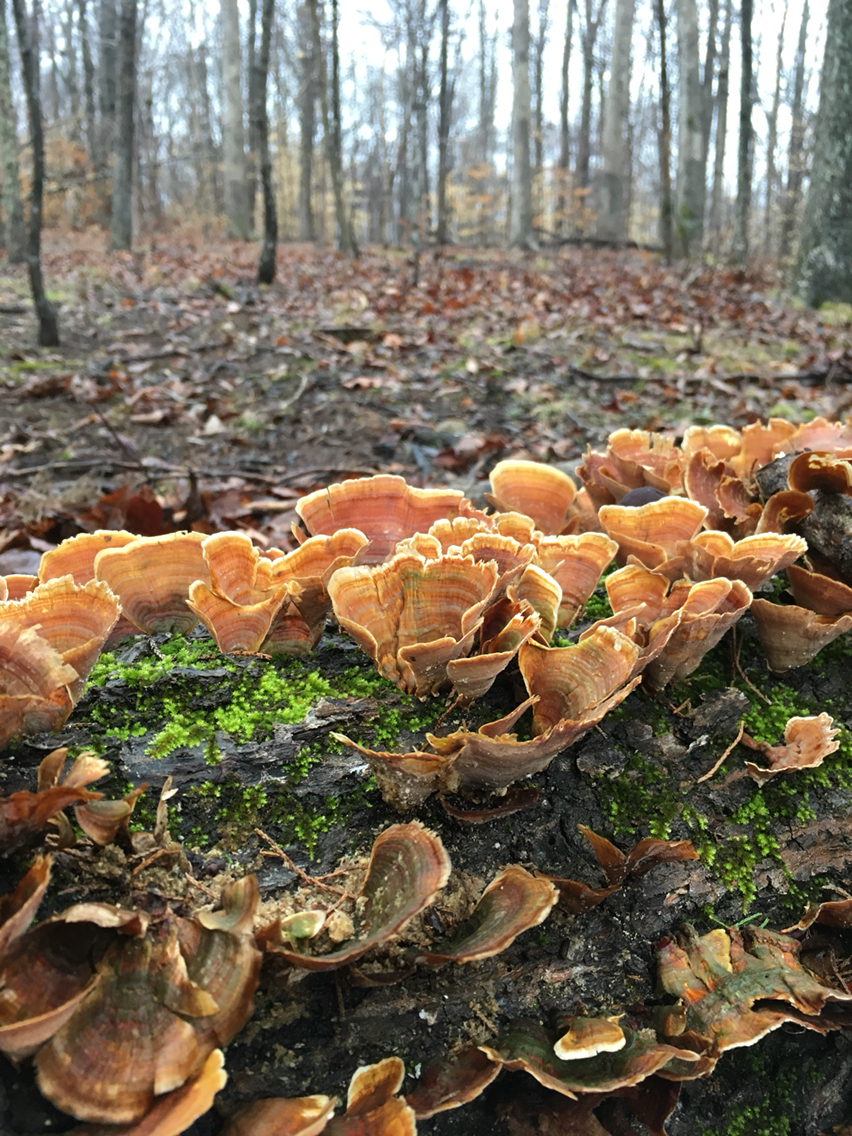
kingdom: Fungi
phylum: Basidiomycota
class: Agaricomycetes
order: Russulales
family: Stereaceae
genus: Stereum
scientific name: Stereum ostrea
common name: False turkeytail
